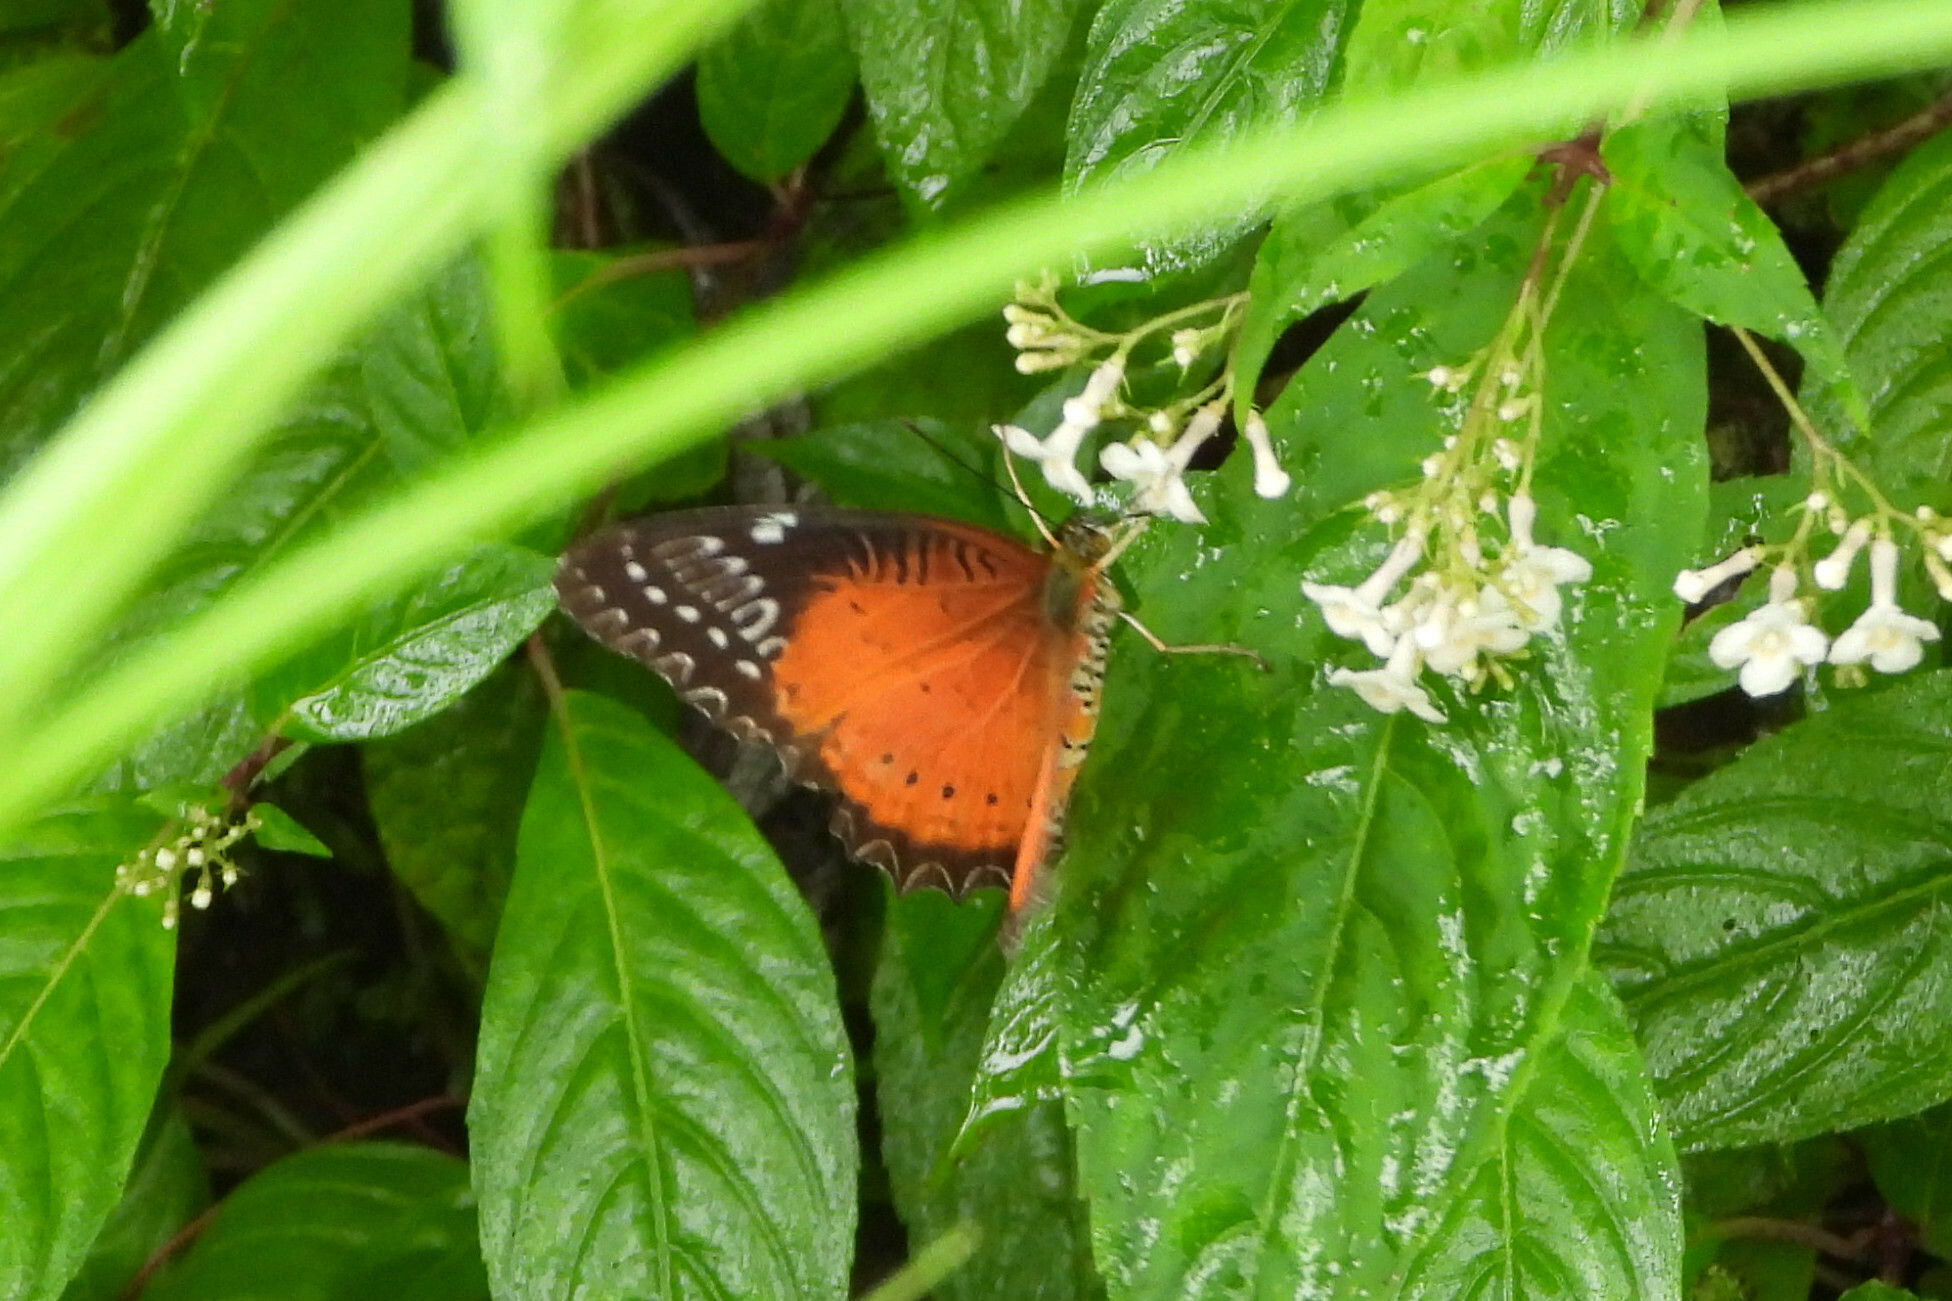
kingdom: Animalia
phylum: Arthropoda
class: Insecta
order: Lepidoptera
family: Nymphalidae
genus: Cethosia
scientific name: Cethosia biblis
